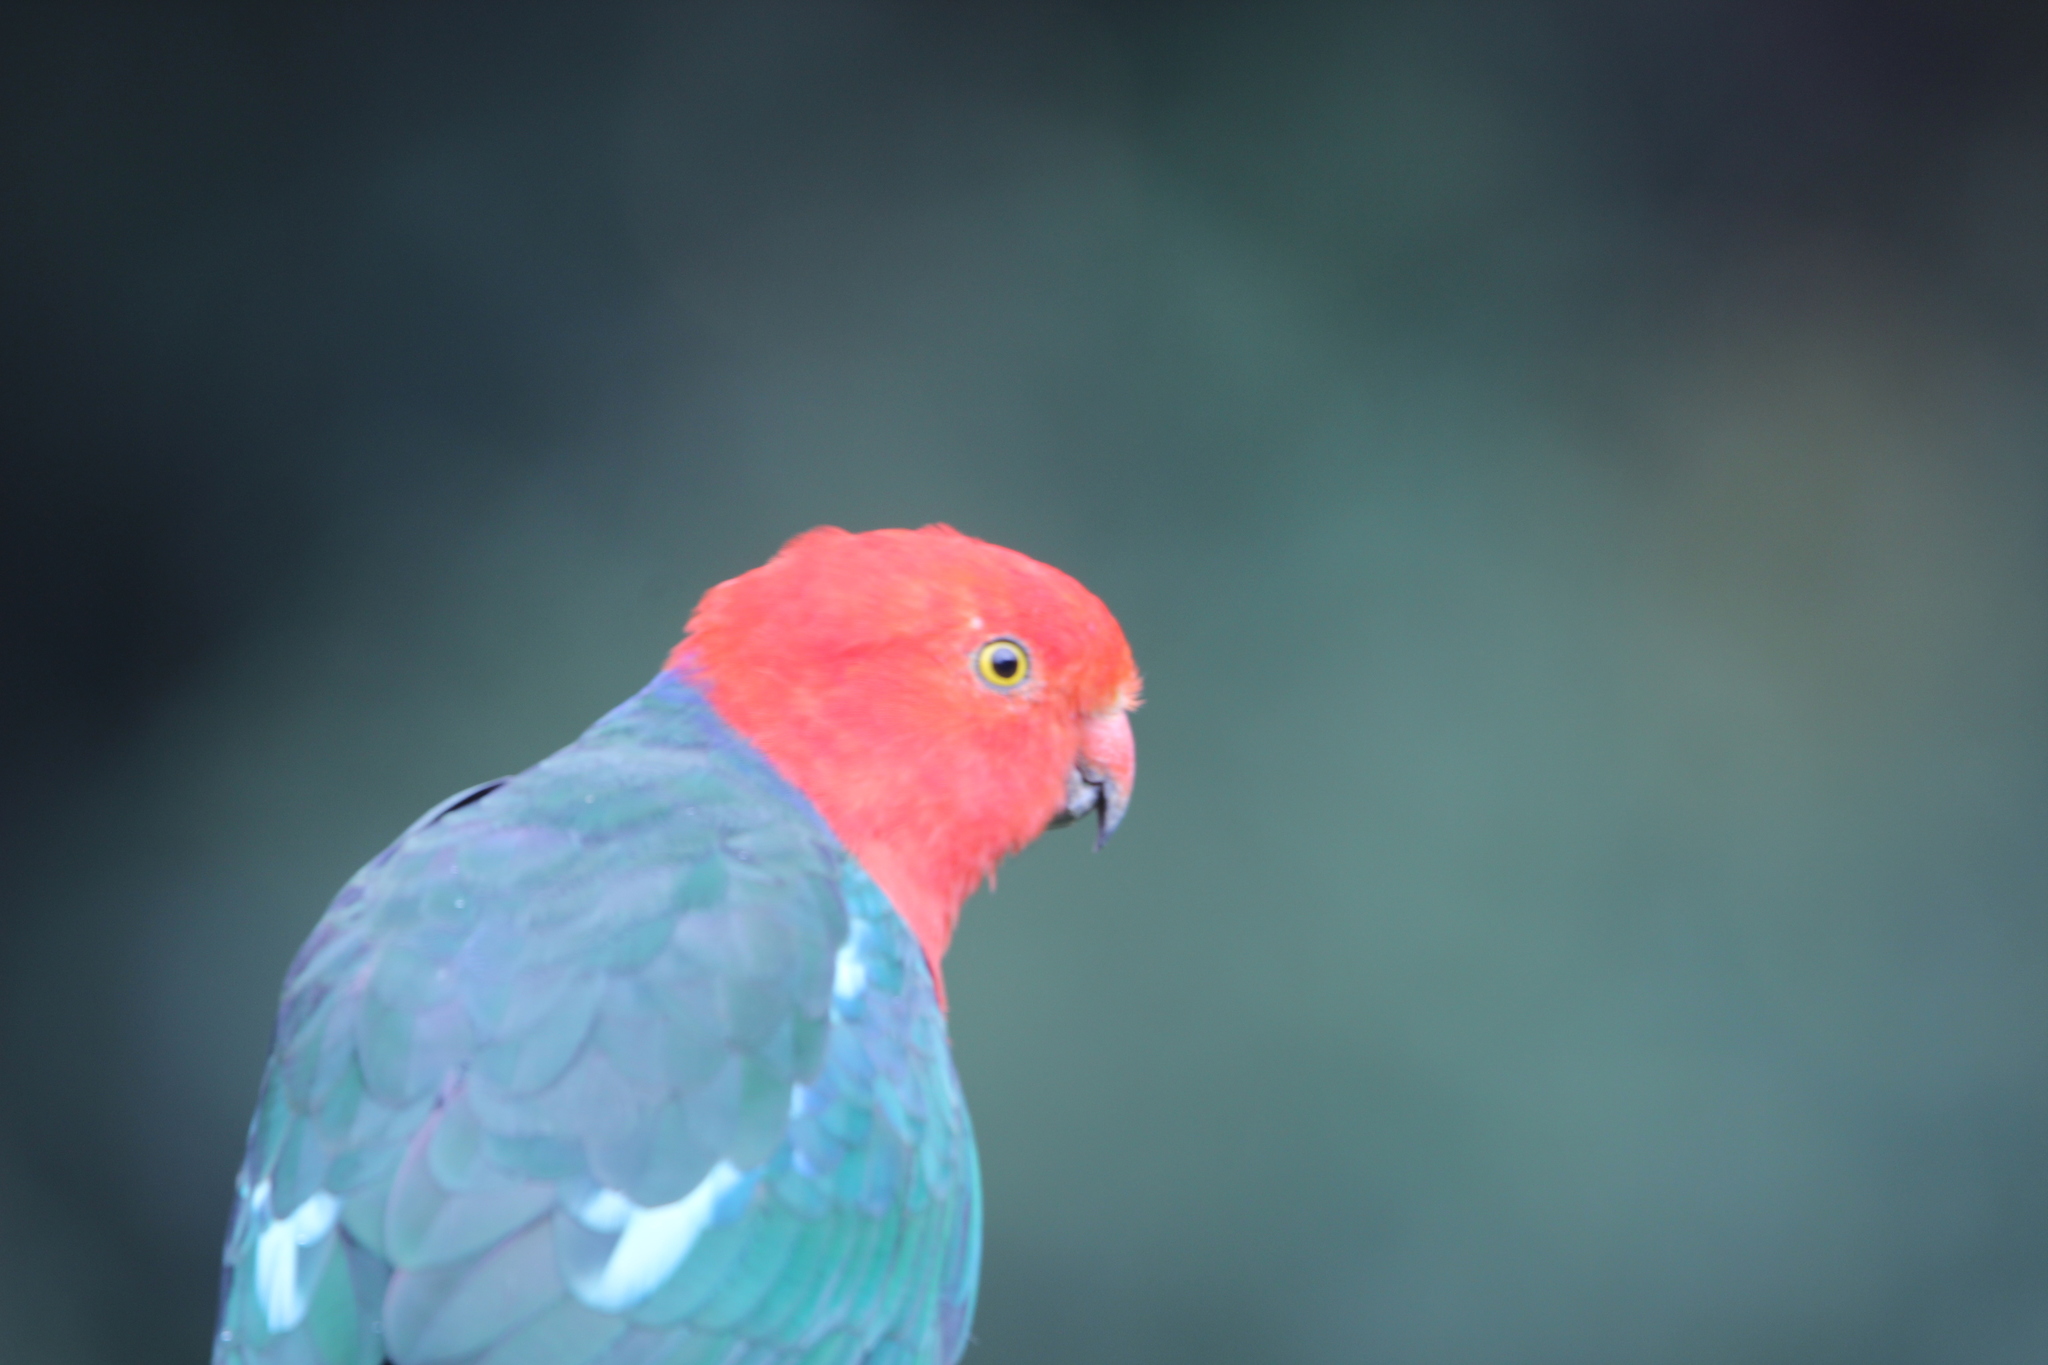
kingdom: Animalia
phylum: Chordata
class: Aves
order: Psittaciformes
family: Psittacidae
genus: Alisterus
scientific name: Alisterus scapularis
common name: Australian king parrot
